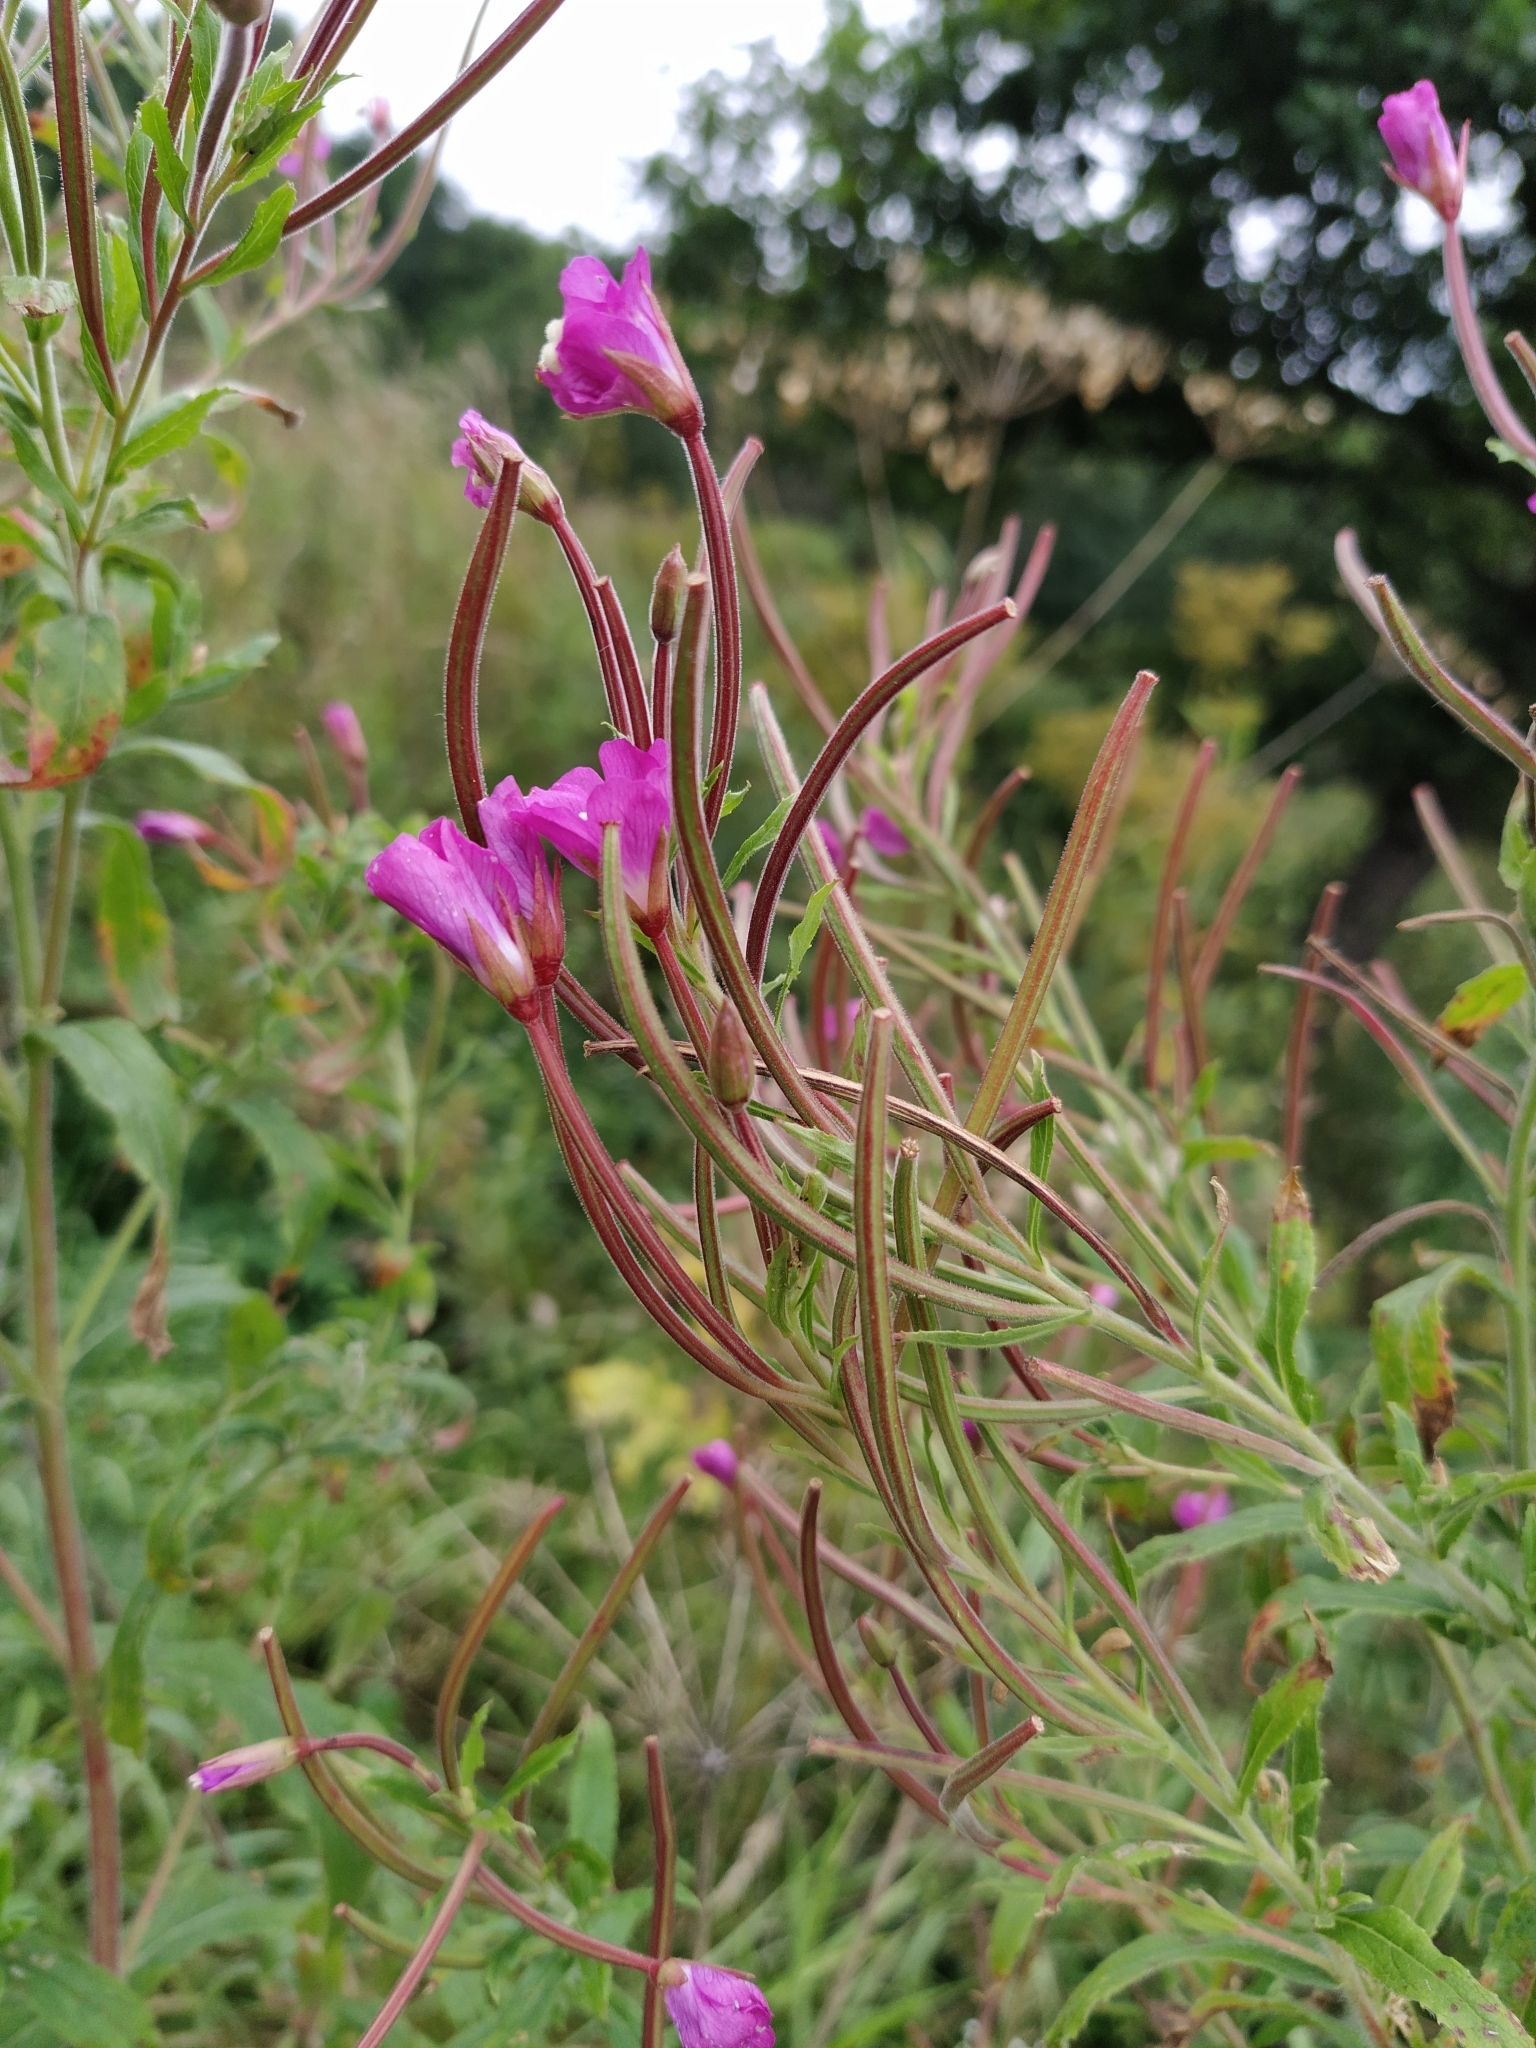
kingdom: Plantae
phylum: Tracheophyta
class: Magnoliopsida
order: Myrtales
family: Onagraceae
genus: Epilobium
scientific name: Epilobium hirsutum
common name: Great willowherb
